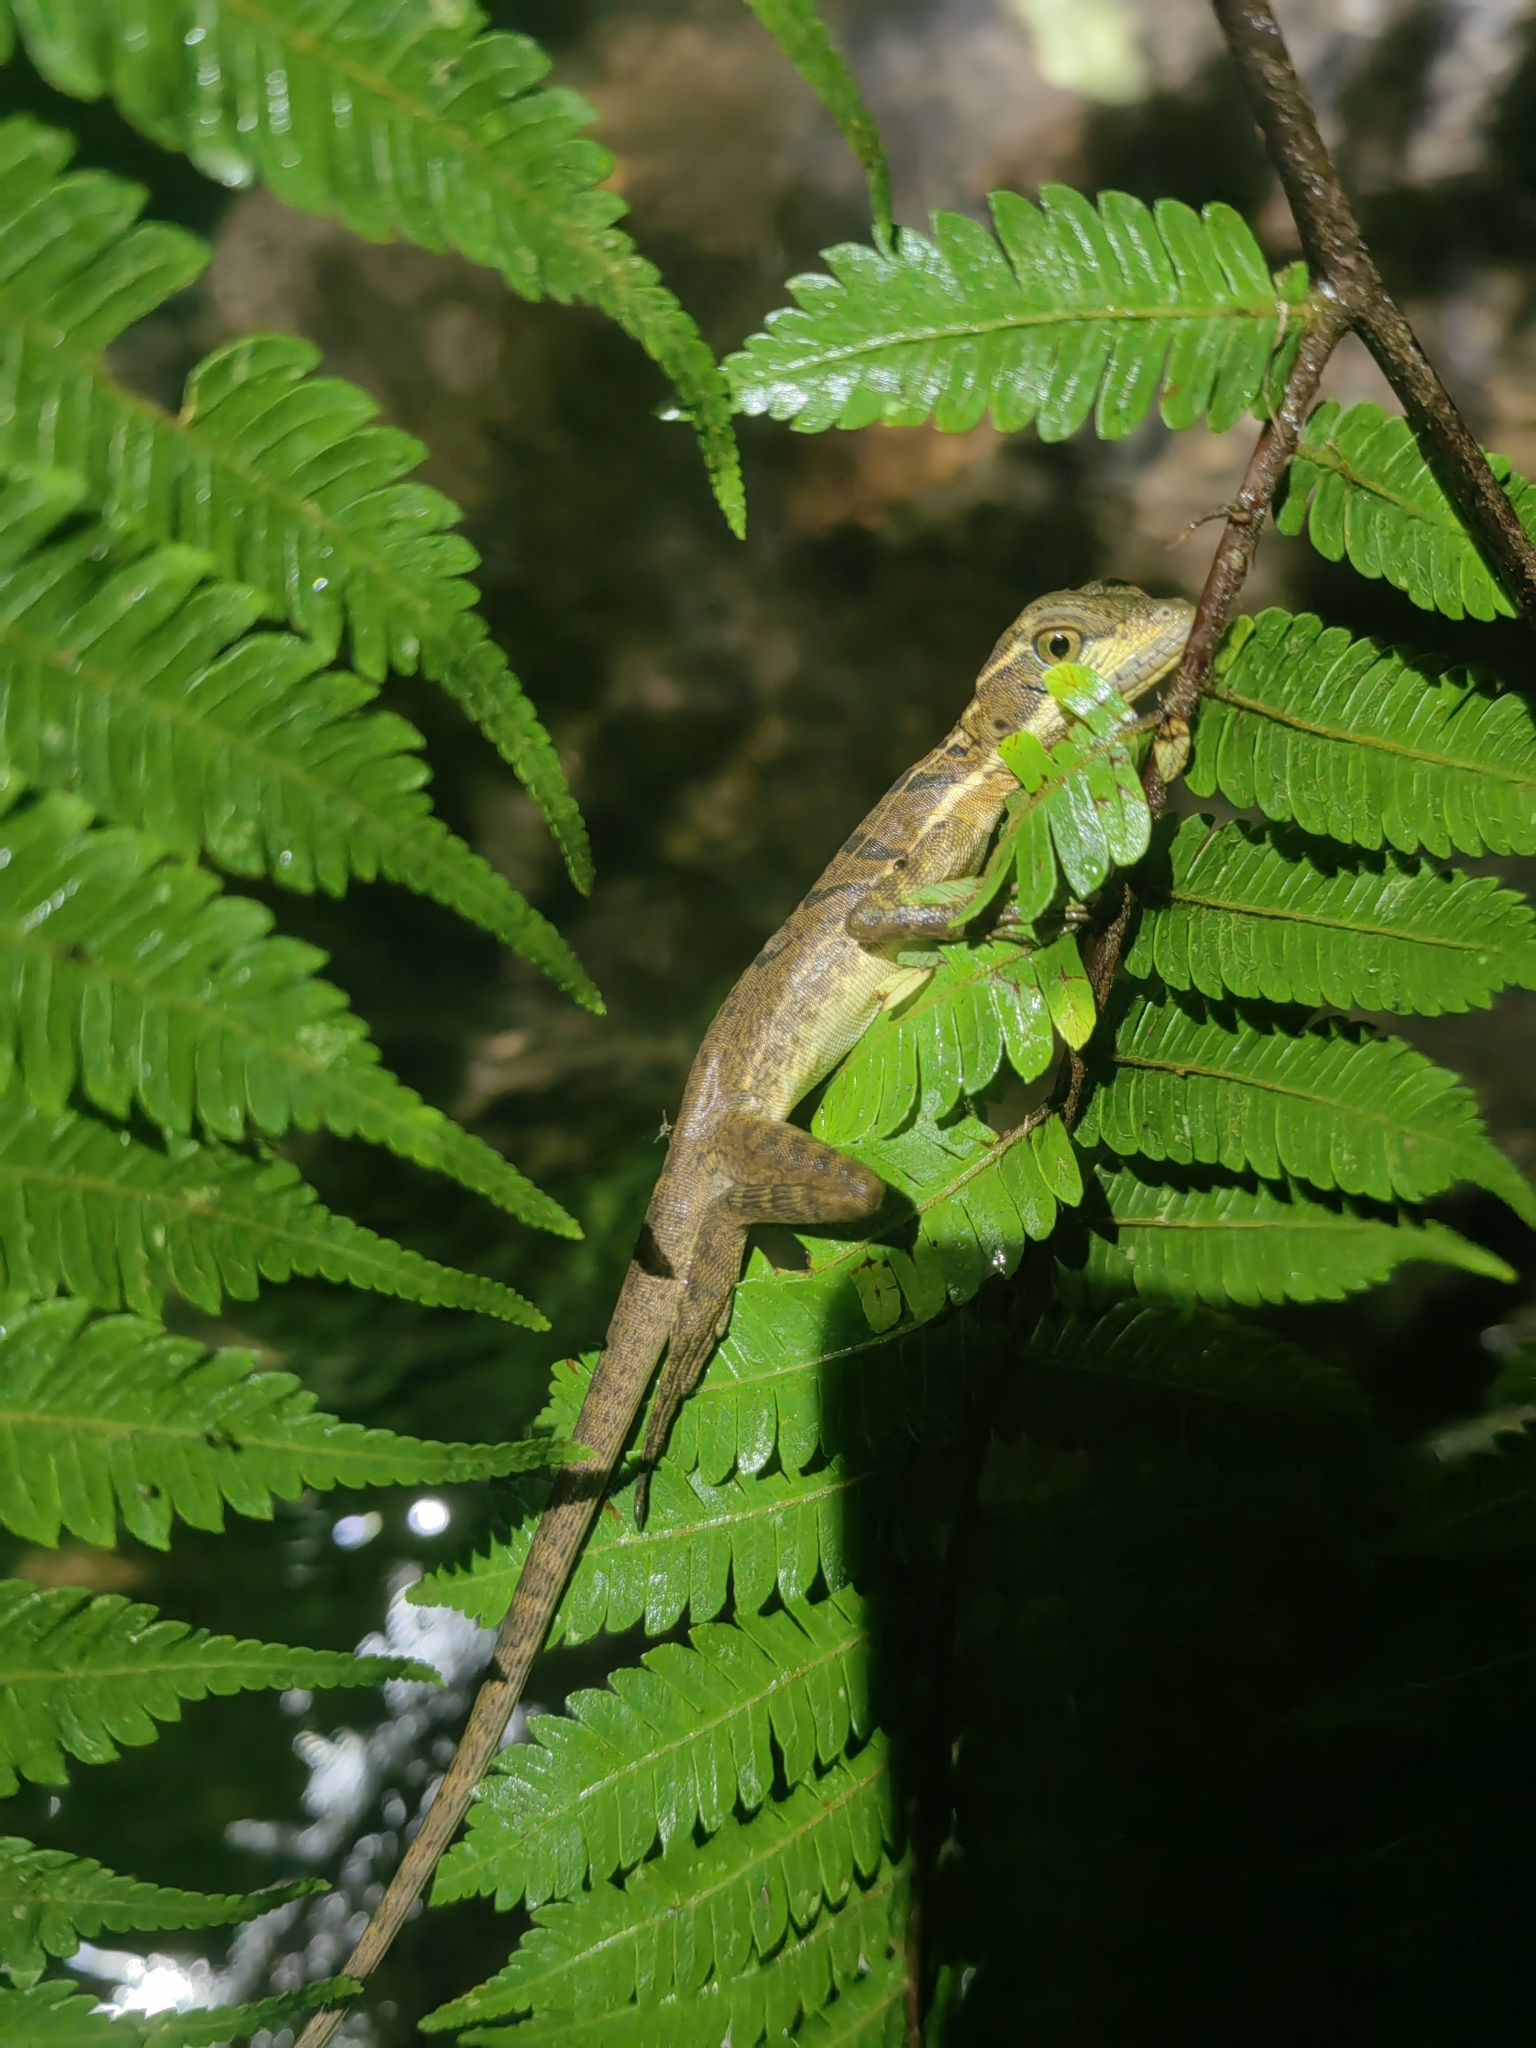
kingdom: Animalia
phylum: Chordata
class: Squamata
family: Corytophanidae
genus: Basiliscus
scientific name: Basiliscus basiliscus
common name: Common basilisk
